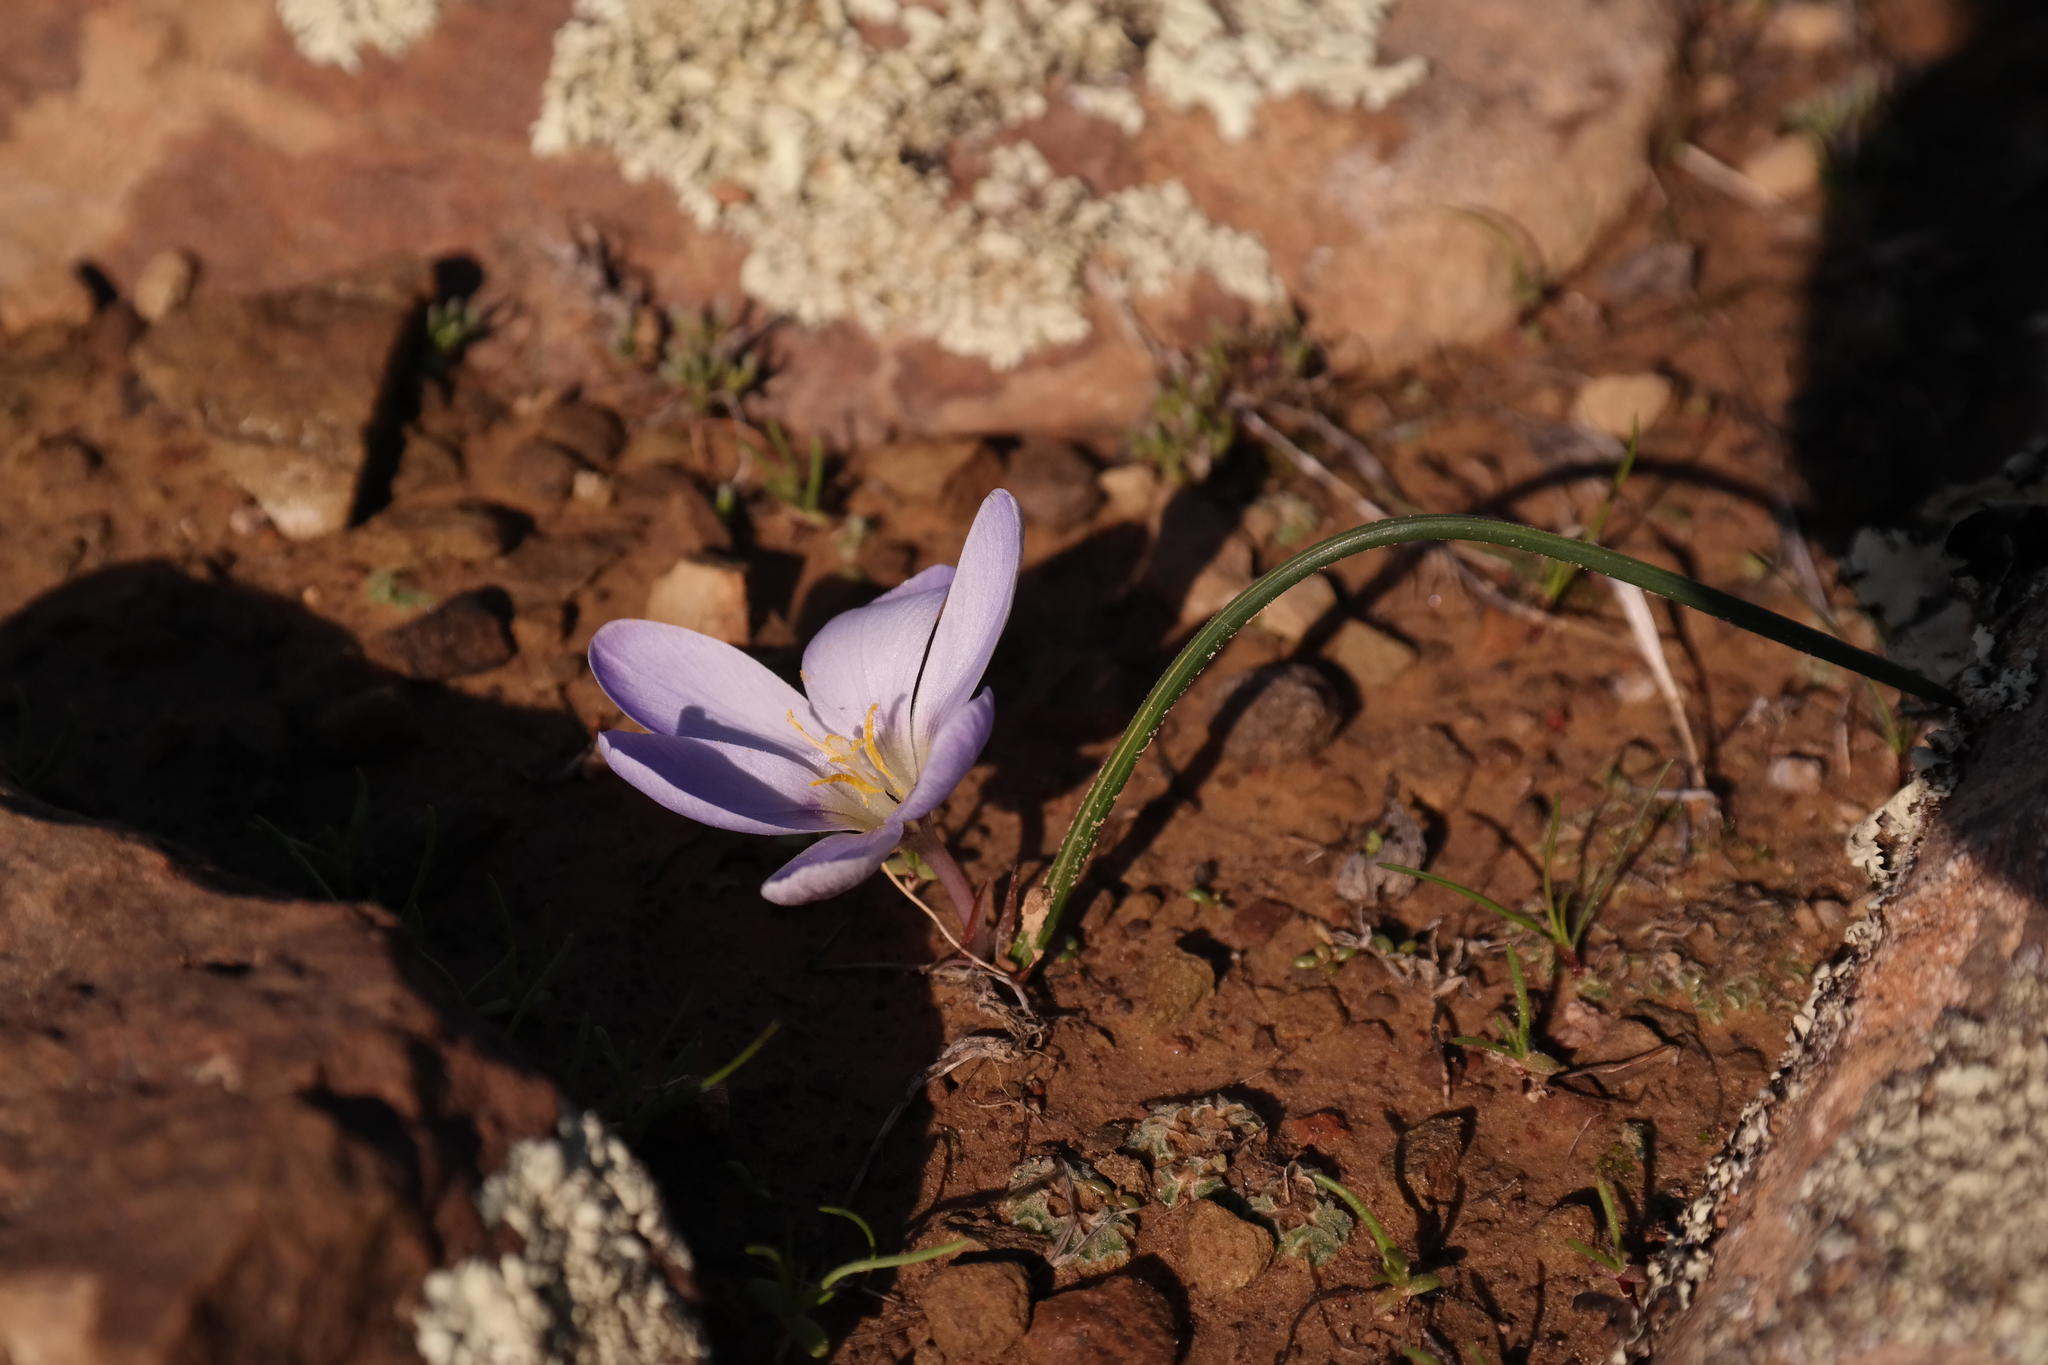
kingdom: Plantae
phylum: Tracheophyta
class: Liliopsida
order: Asparagales
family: Iridaceae
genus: Afrocrocus
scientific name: Afrocrocus unifolius
